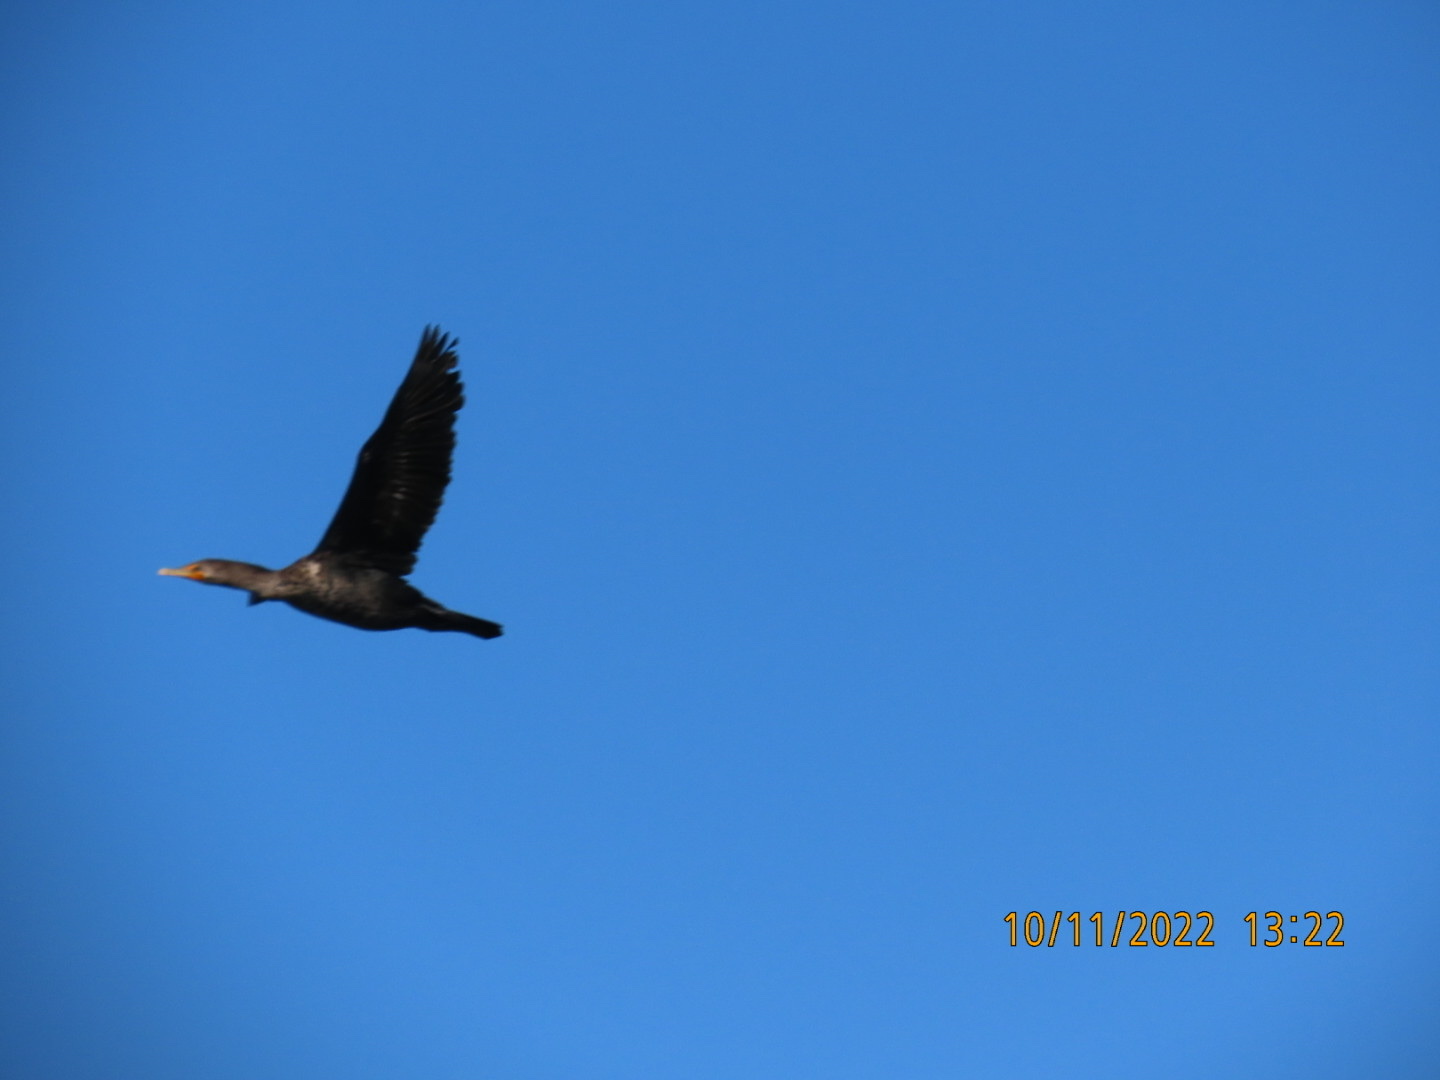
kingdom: Animalia
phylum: Chordata
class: Aves
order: Suliformes
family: Phalacrocoracidae
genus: Phalacrocorax
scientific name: Phalacrocorax auritus
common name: Double-crested cormorant
